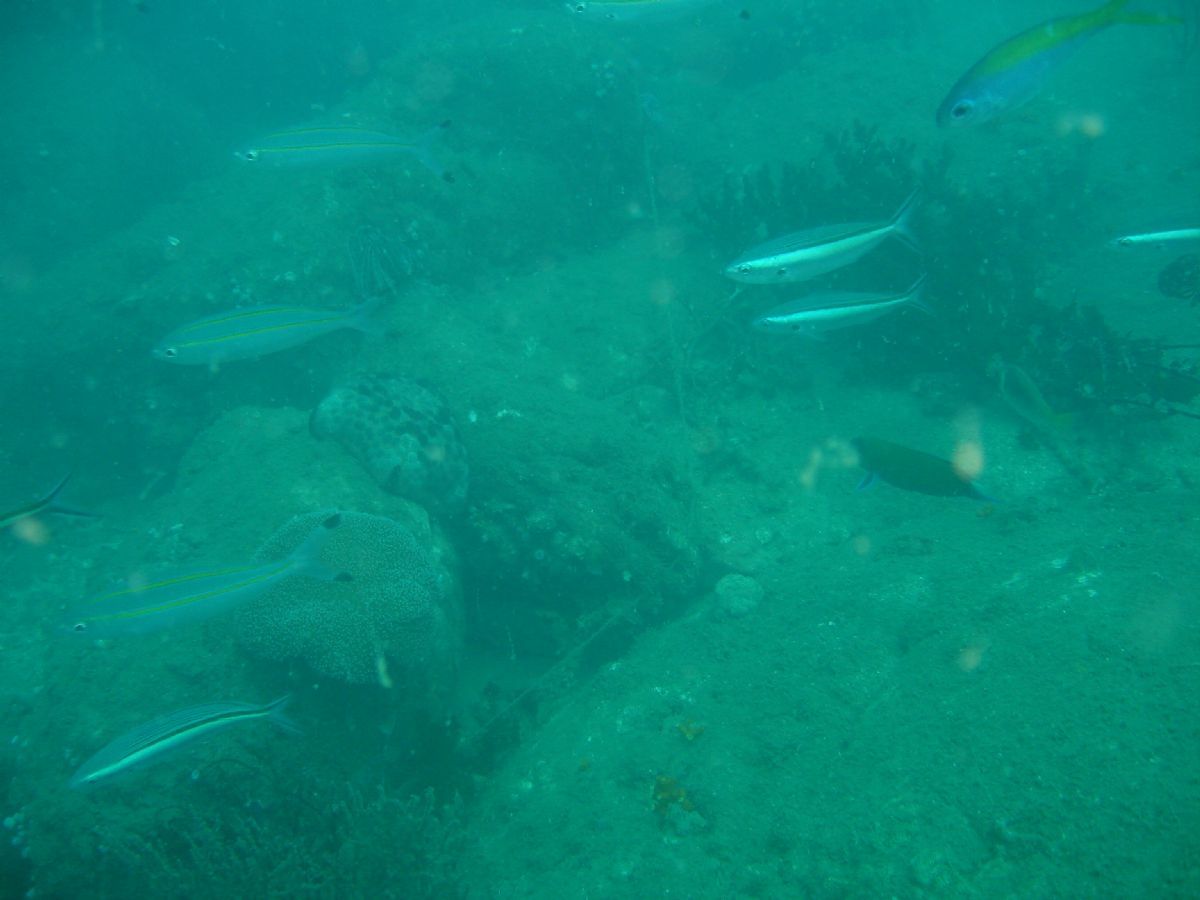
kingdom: Animalia
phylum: Chordata
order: Perciformes
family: Caesionidae
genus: Pterocaesio
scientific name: Pterocaesio tile
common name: Dark-banded fusilier
